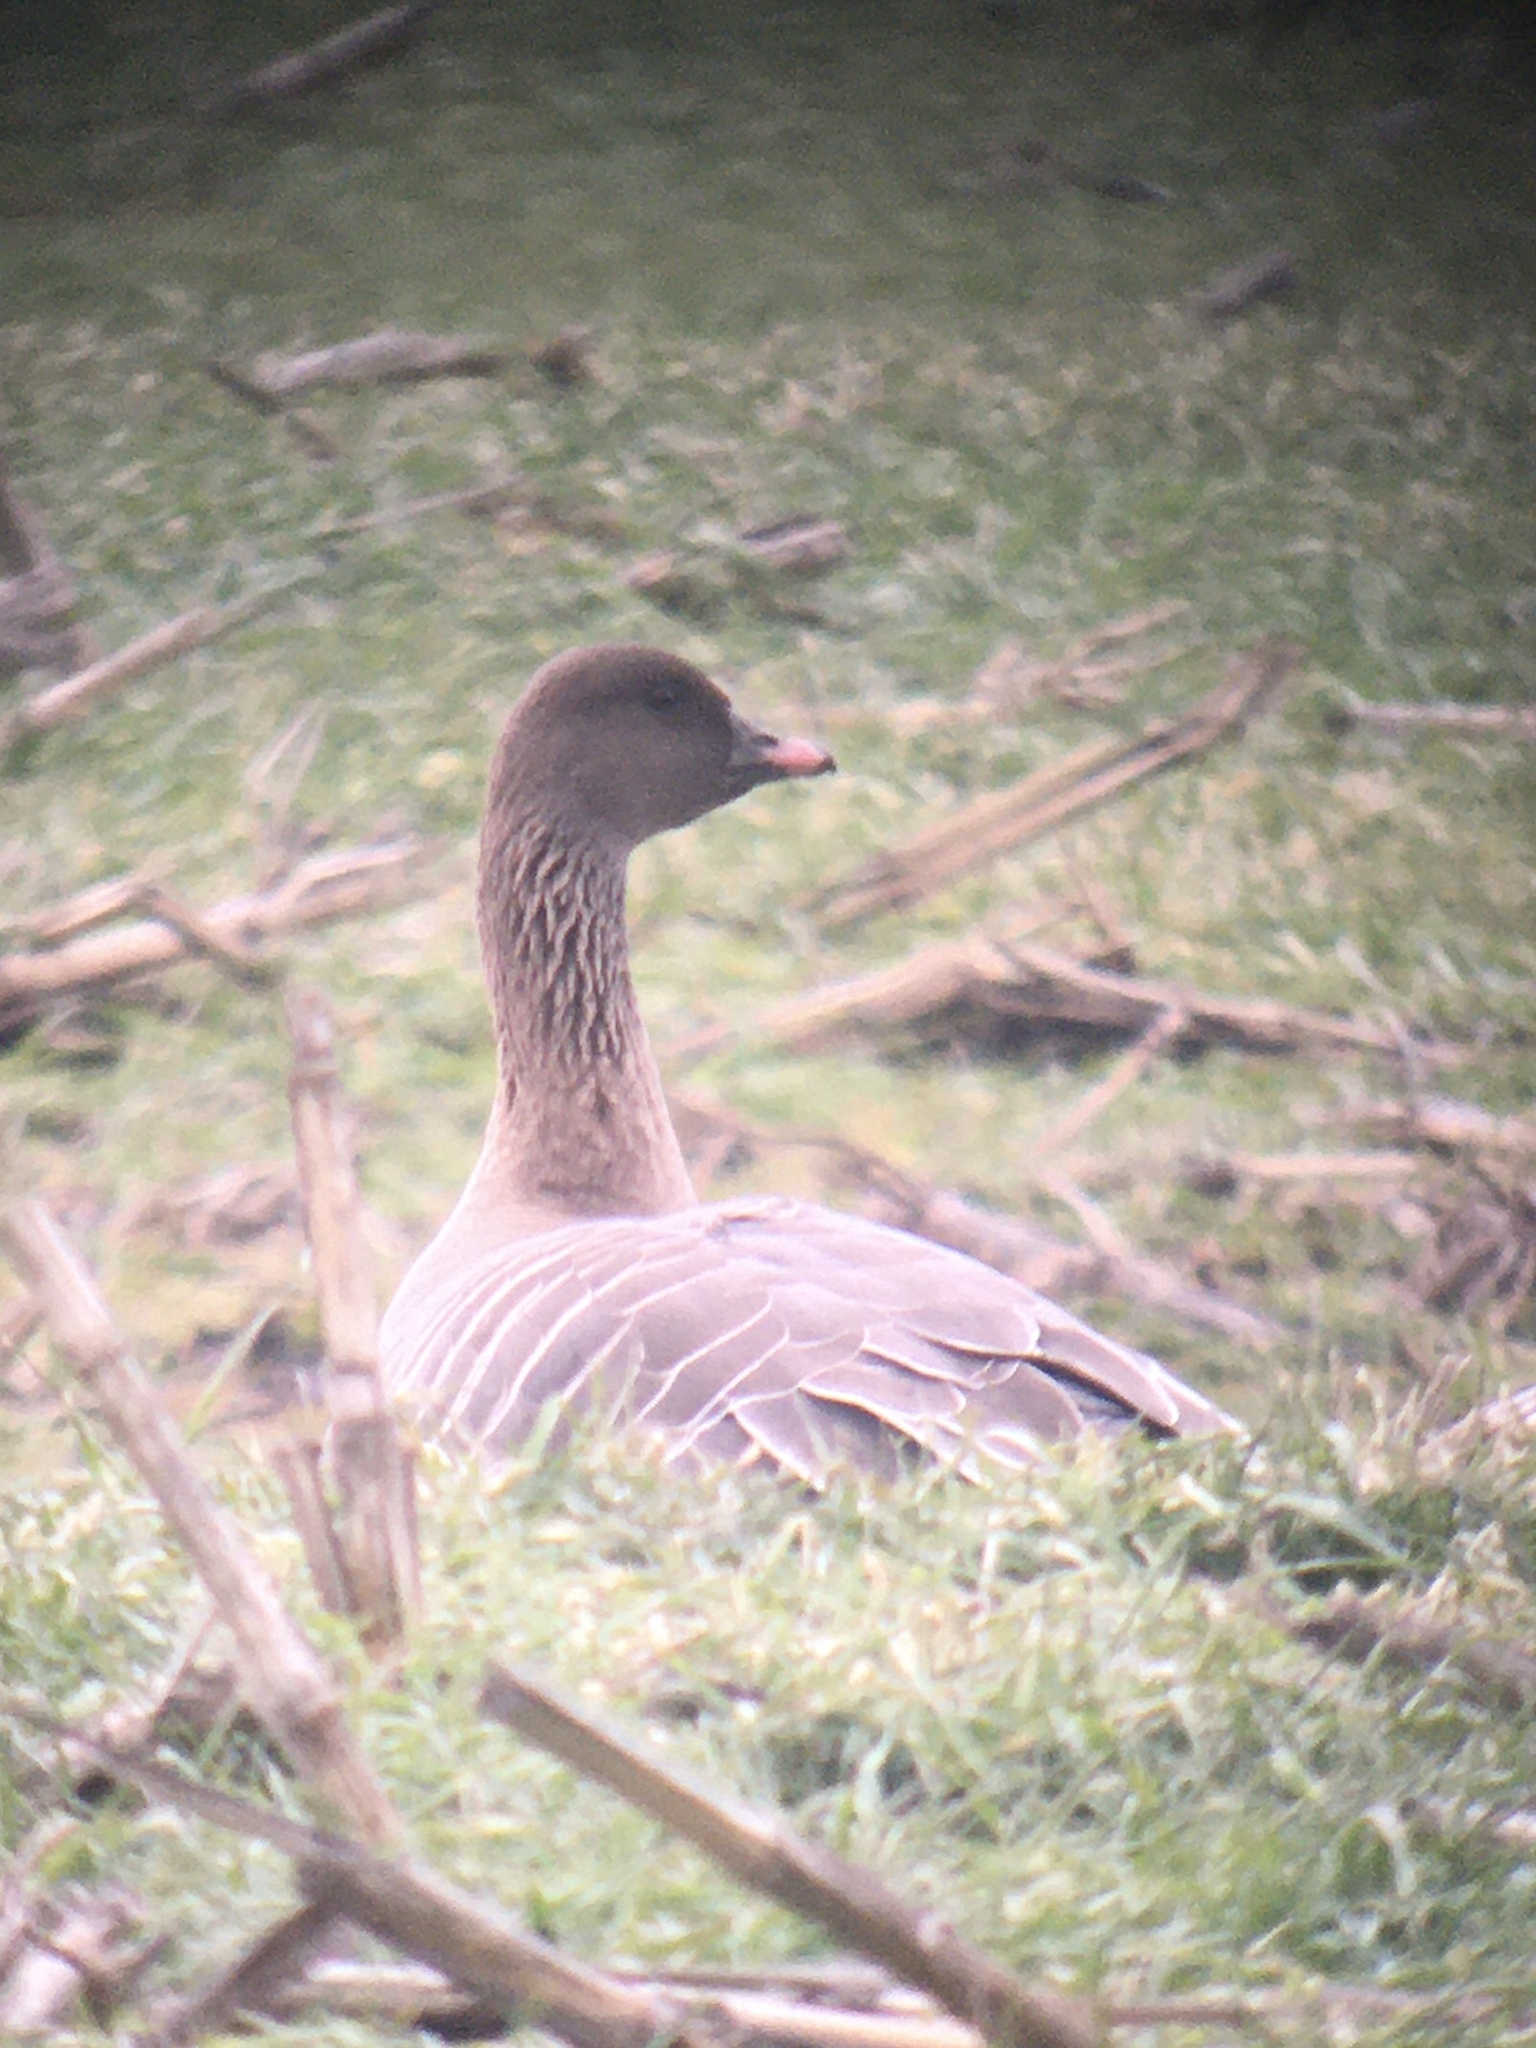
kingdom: Animalia
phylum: Chordata
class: Aves
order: Anseriformes
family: Anatidae
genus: Anser
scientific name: Anser brachyrhynchus
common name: Pink-footed goose
